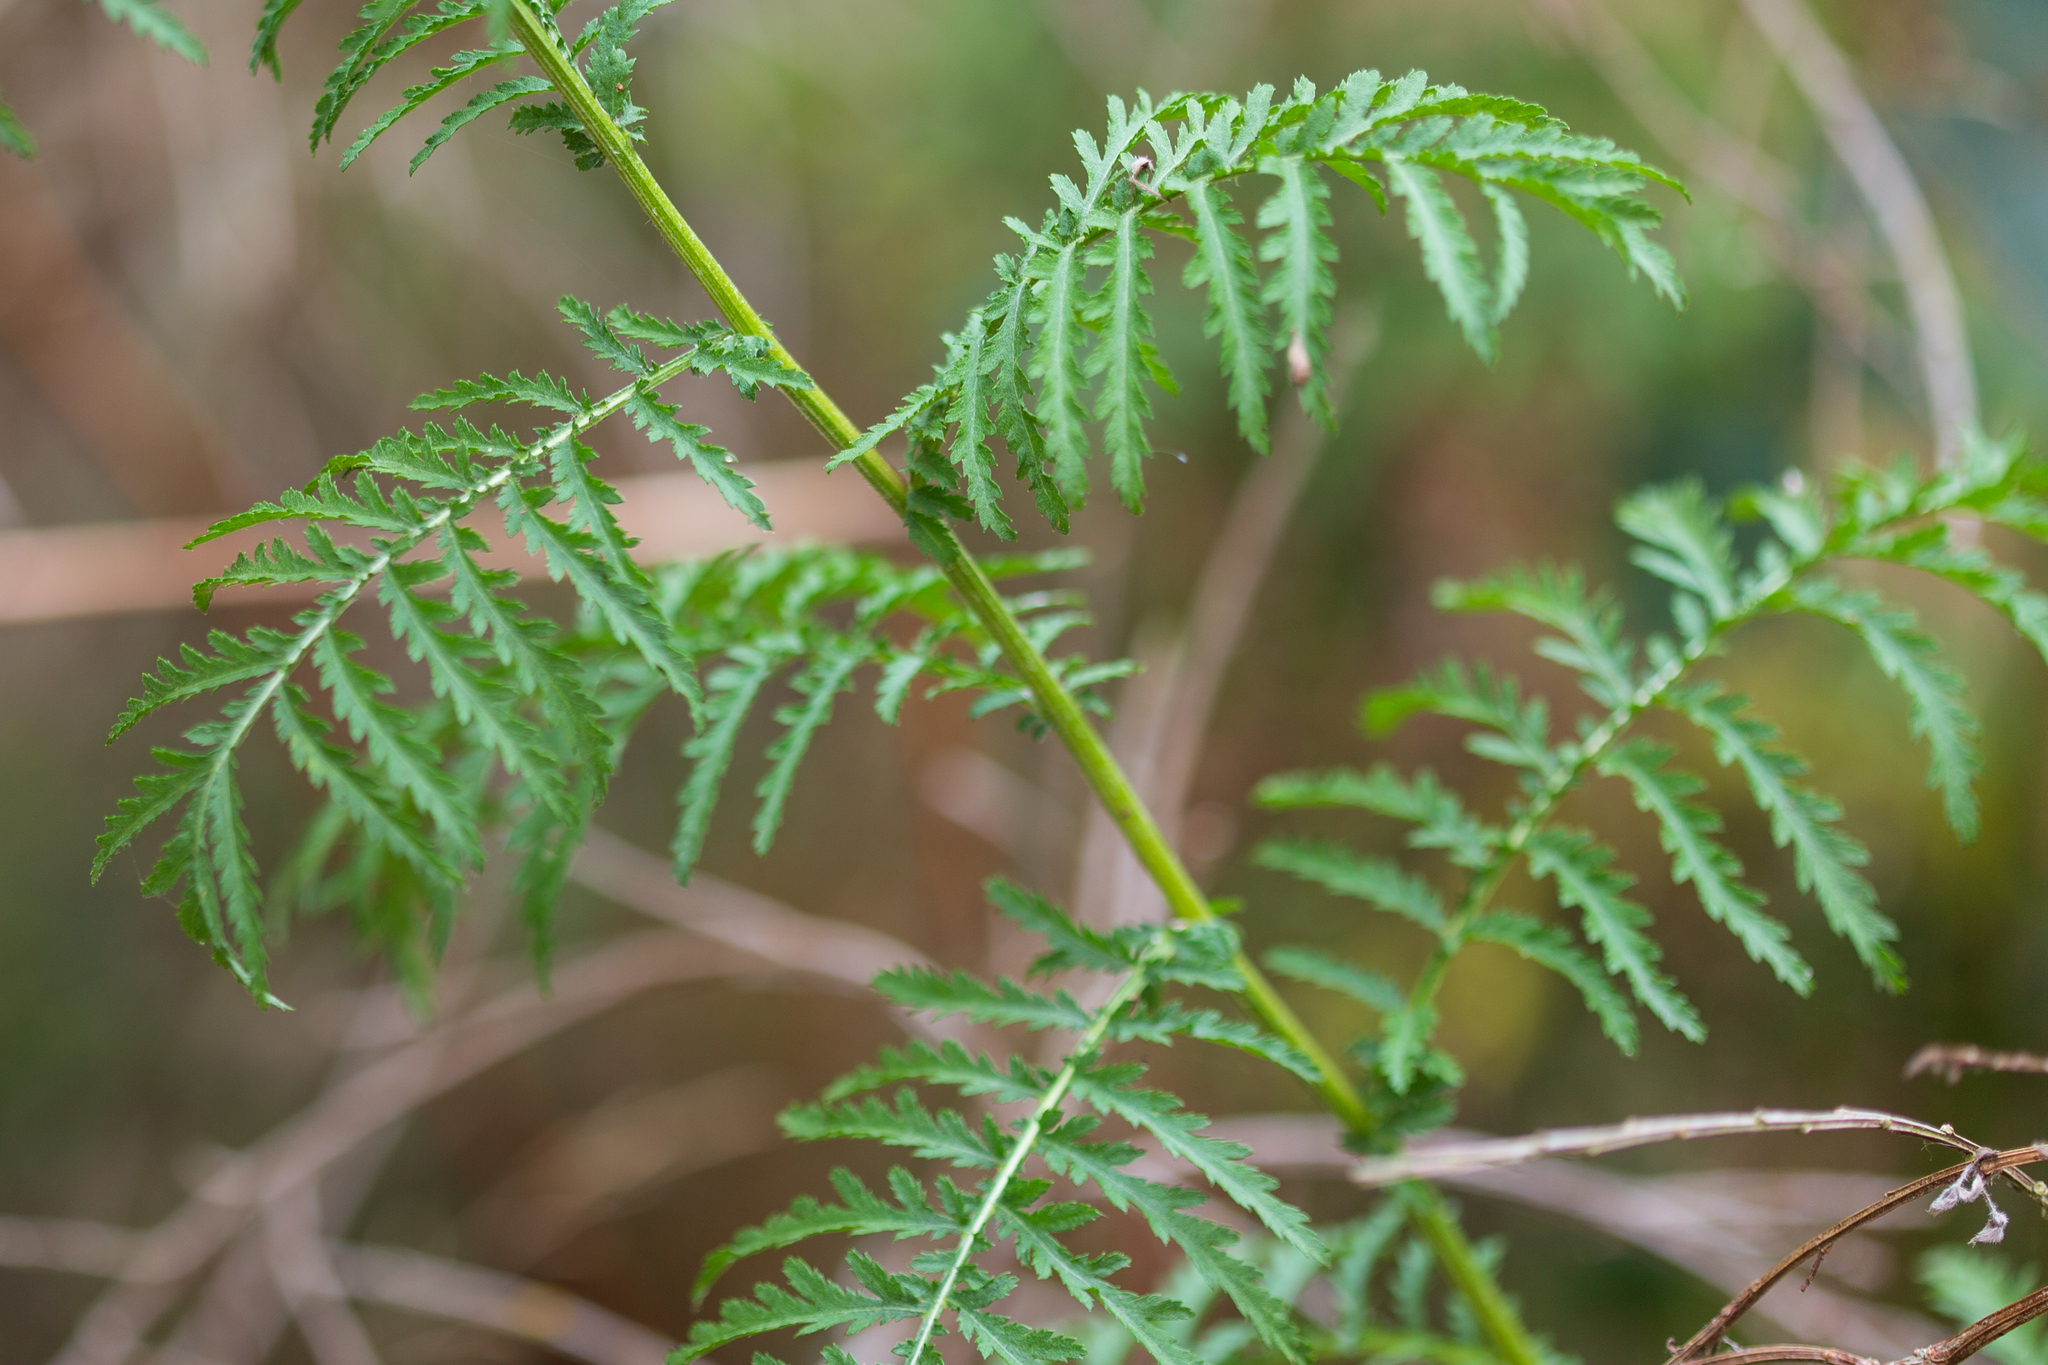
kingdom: Plantae
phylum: Tracheophyta
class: Magnoliopsida
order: Asterales
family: Asteraceae
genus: Tanacetum
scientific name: Tanacetum vulgare
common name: Common tansy
